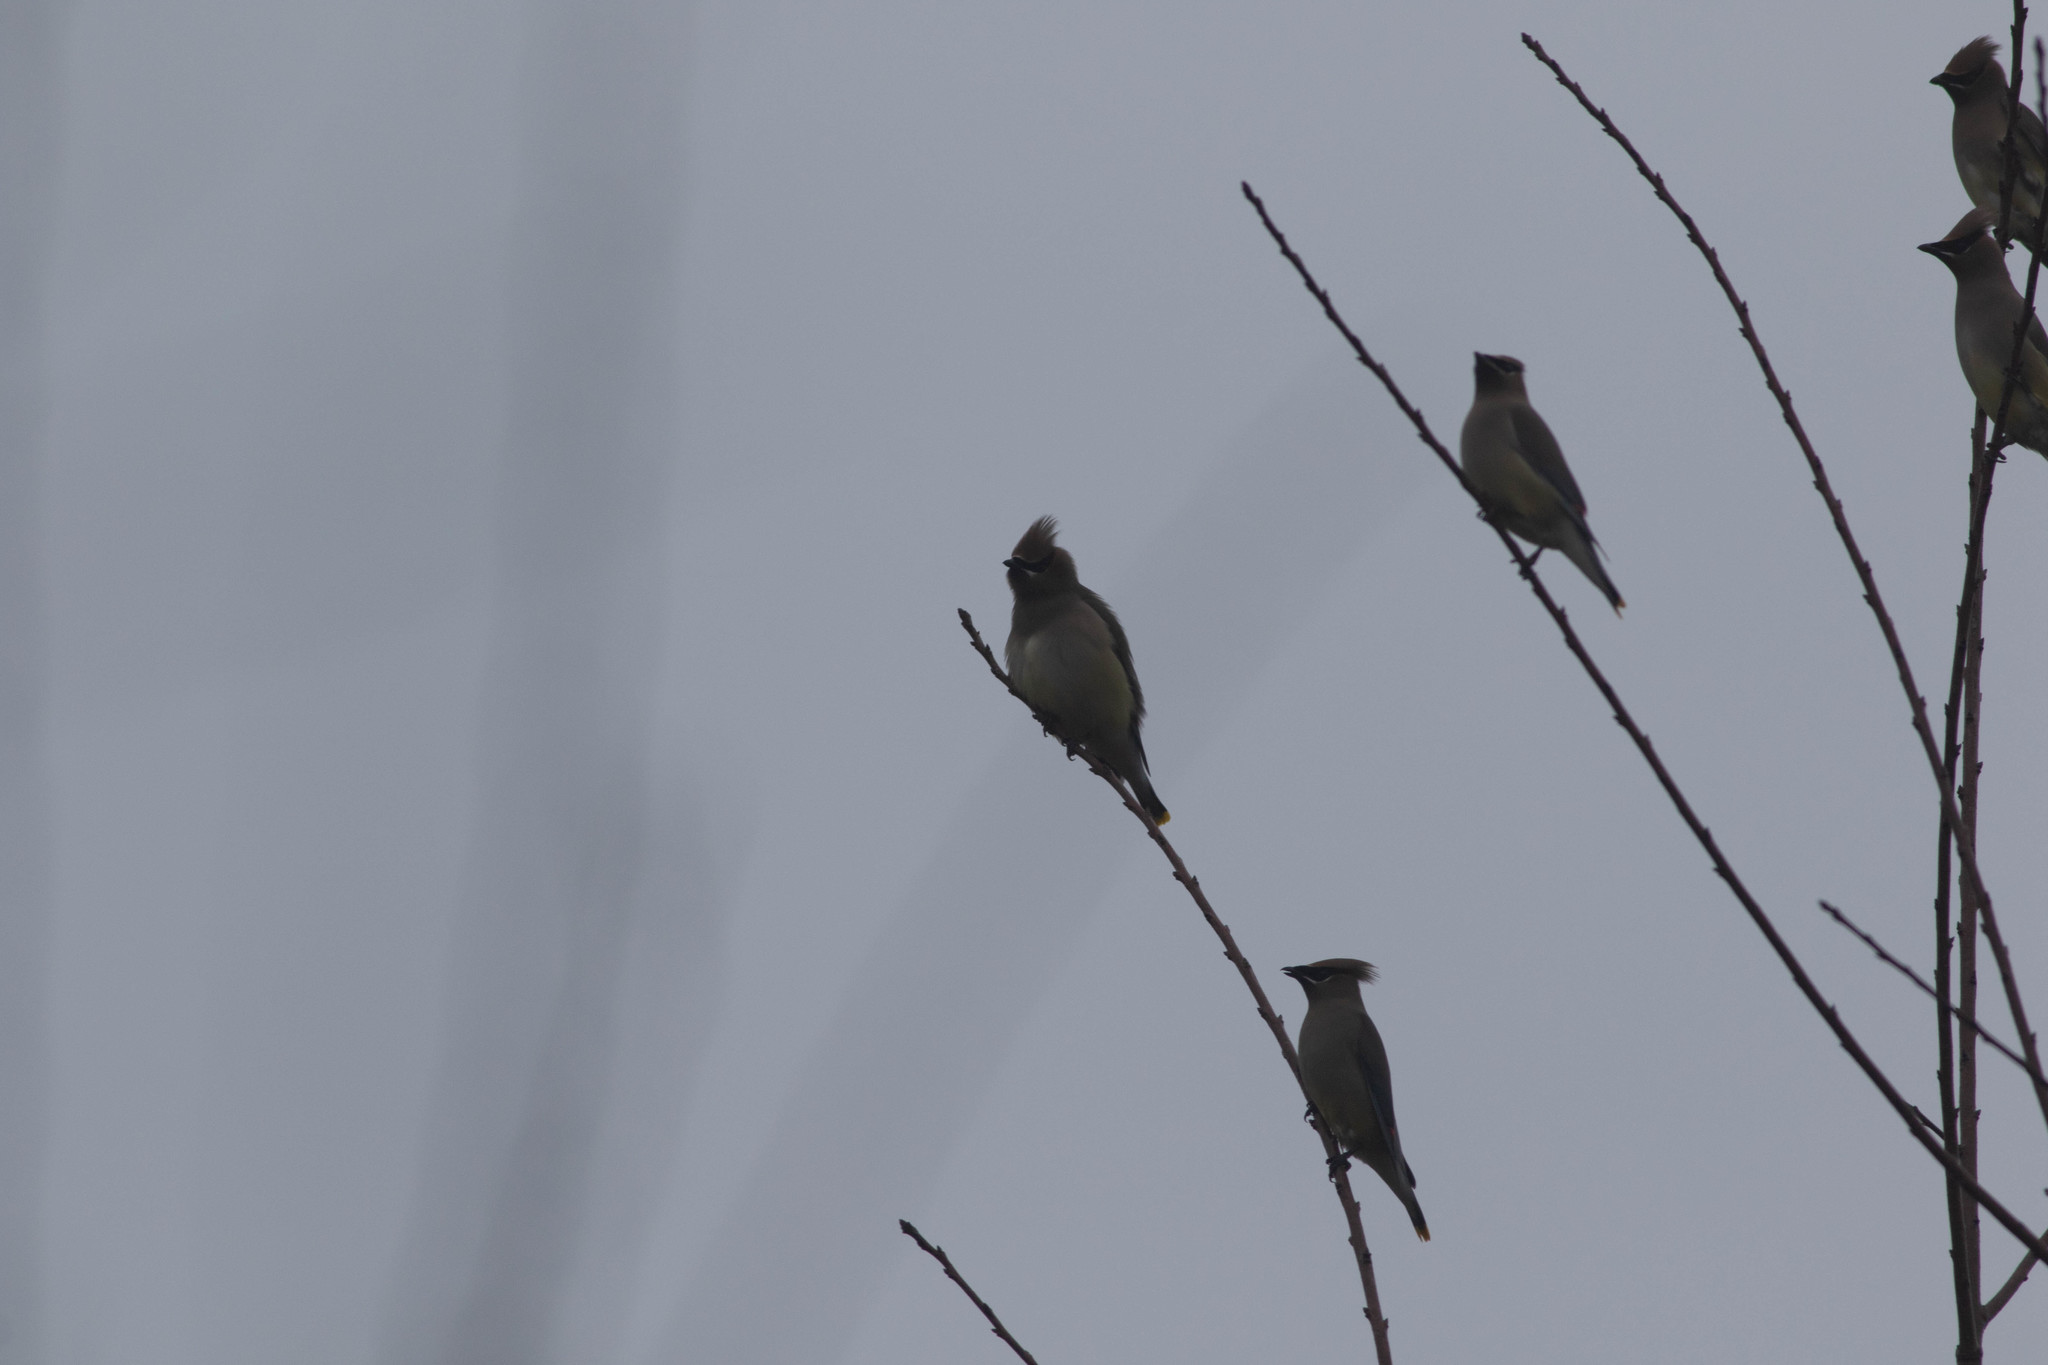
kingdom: Animalia
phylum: Chordata
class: Aves
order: Passeriformes
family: Bombycillidae
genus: Bombycilla
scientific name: Bombycilla cedrorum
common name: Cedar waxwing
